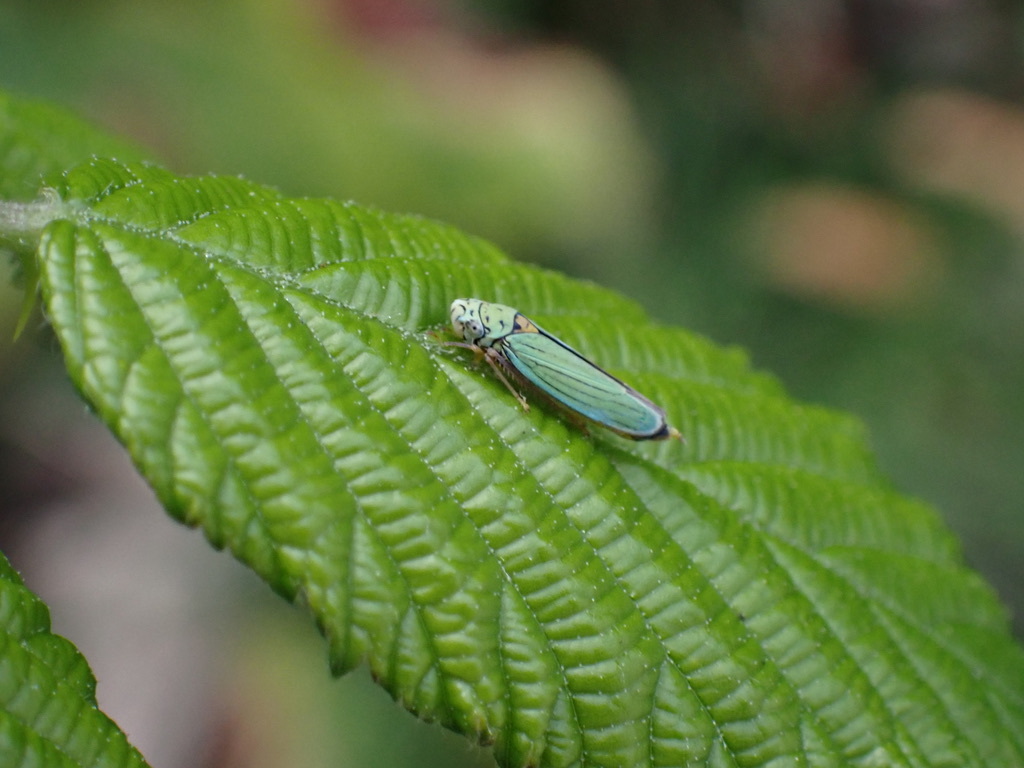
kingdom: Animalia
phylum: Arthropoda
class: Insecta
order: Hemiptera
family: Cicadellidae
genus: Graphocephala
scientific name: Graphocephala atropunctata
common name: Blue-green sharpshooter
